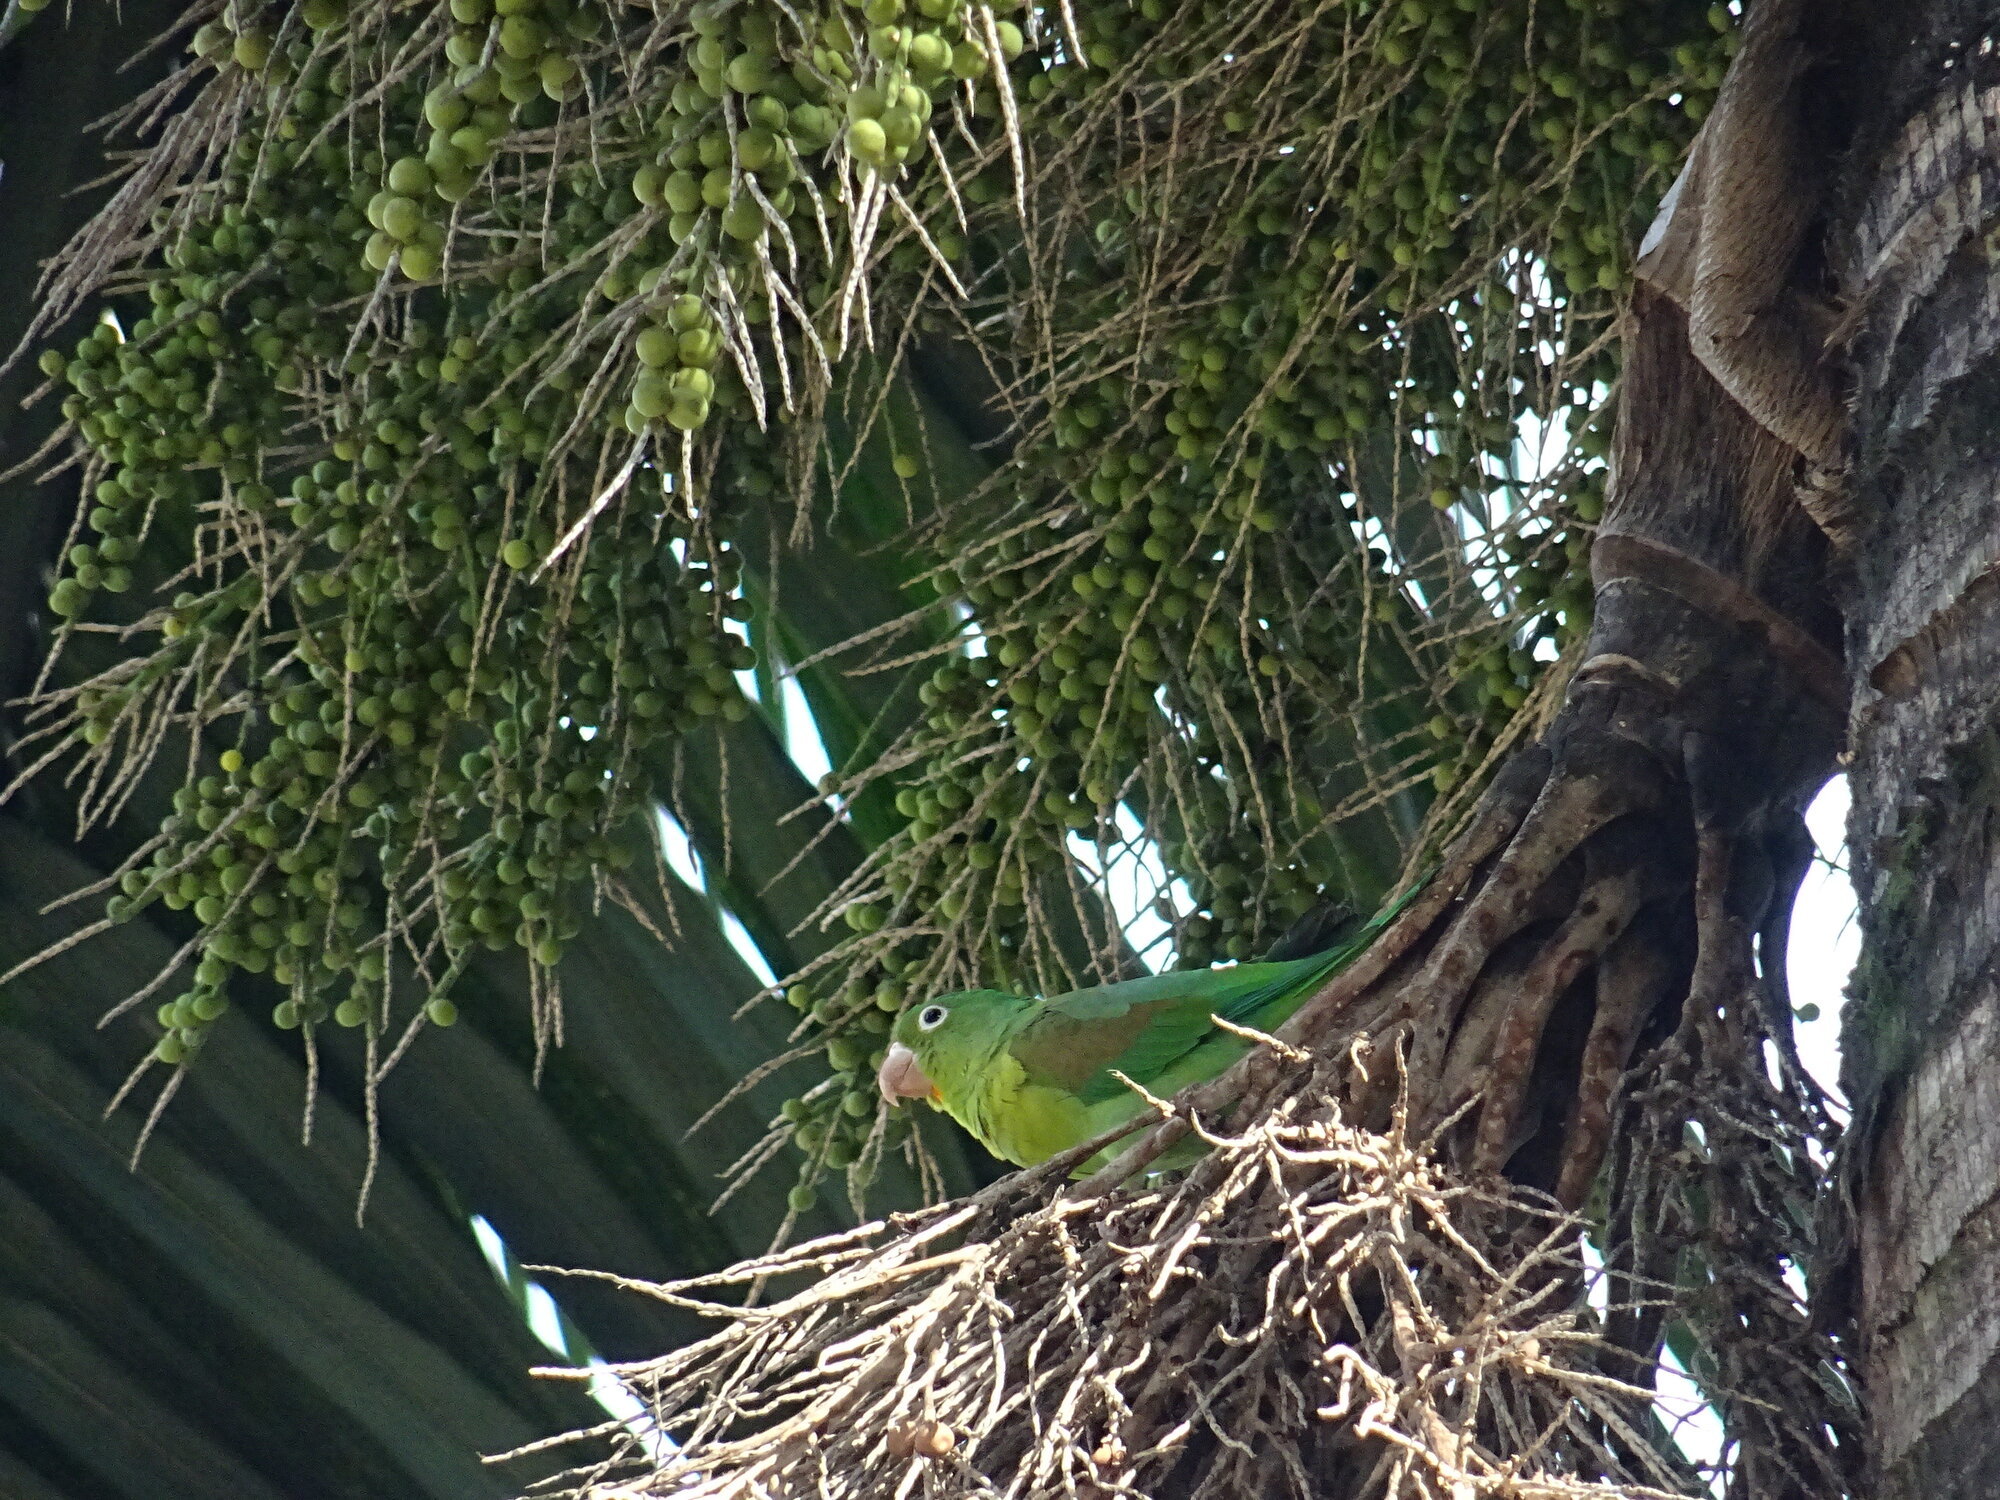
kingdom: Animalia
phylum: Chordata
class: Aves
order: Psittaciformes
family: Psittacidae
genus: Brotogeris
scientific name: Brotogeris jugularis
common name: Orange-chinned parakeet
